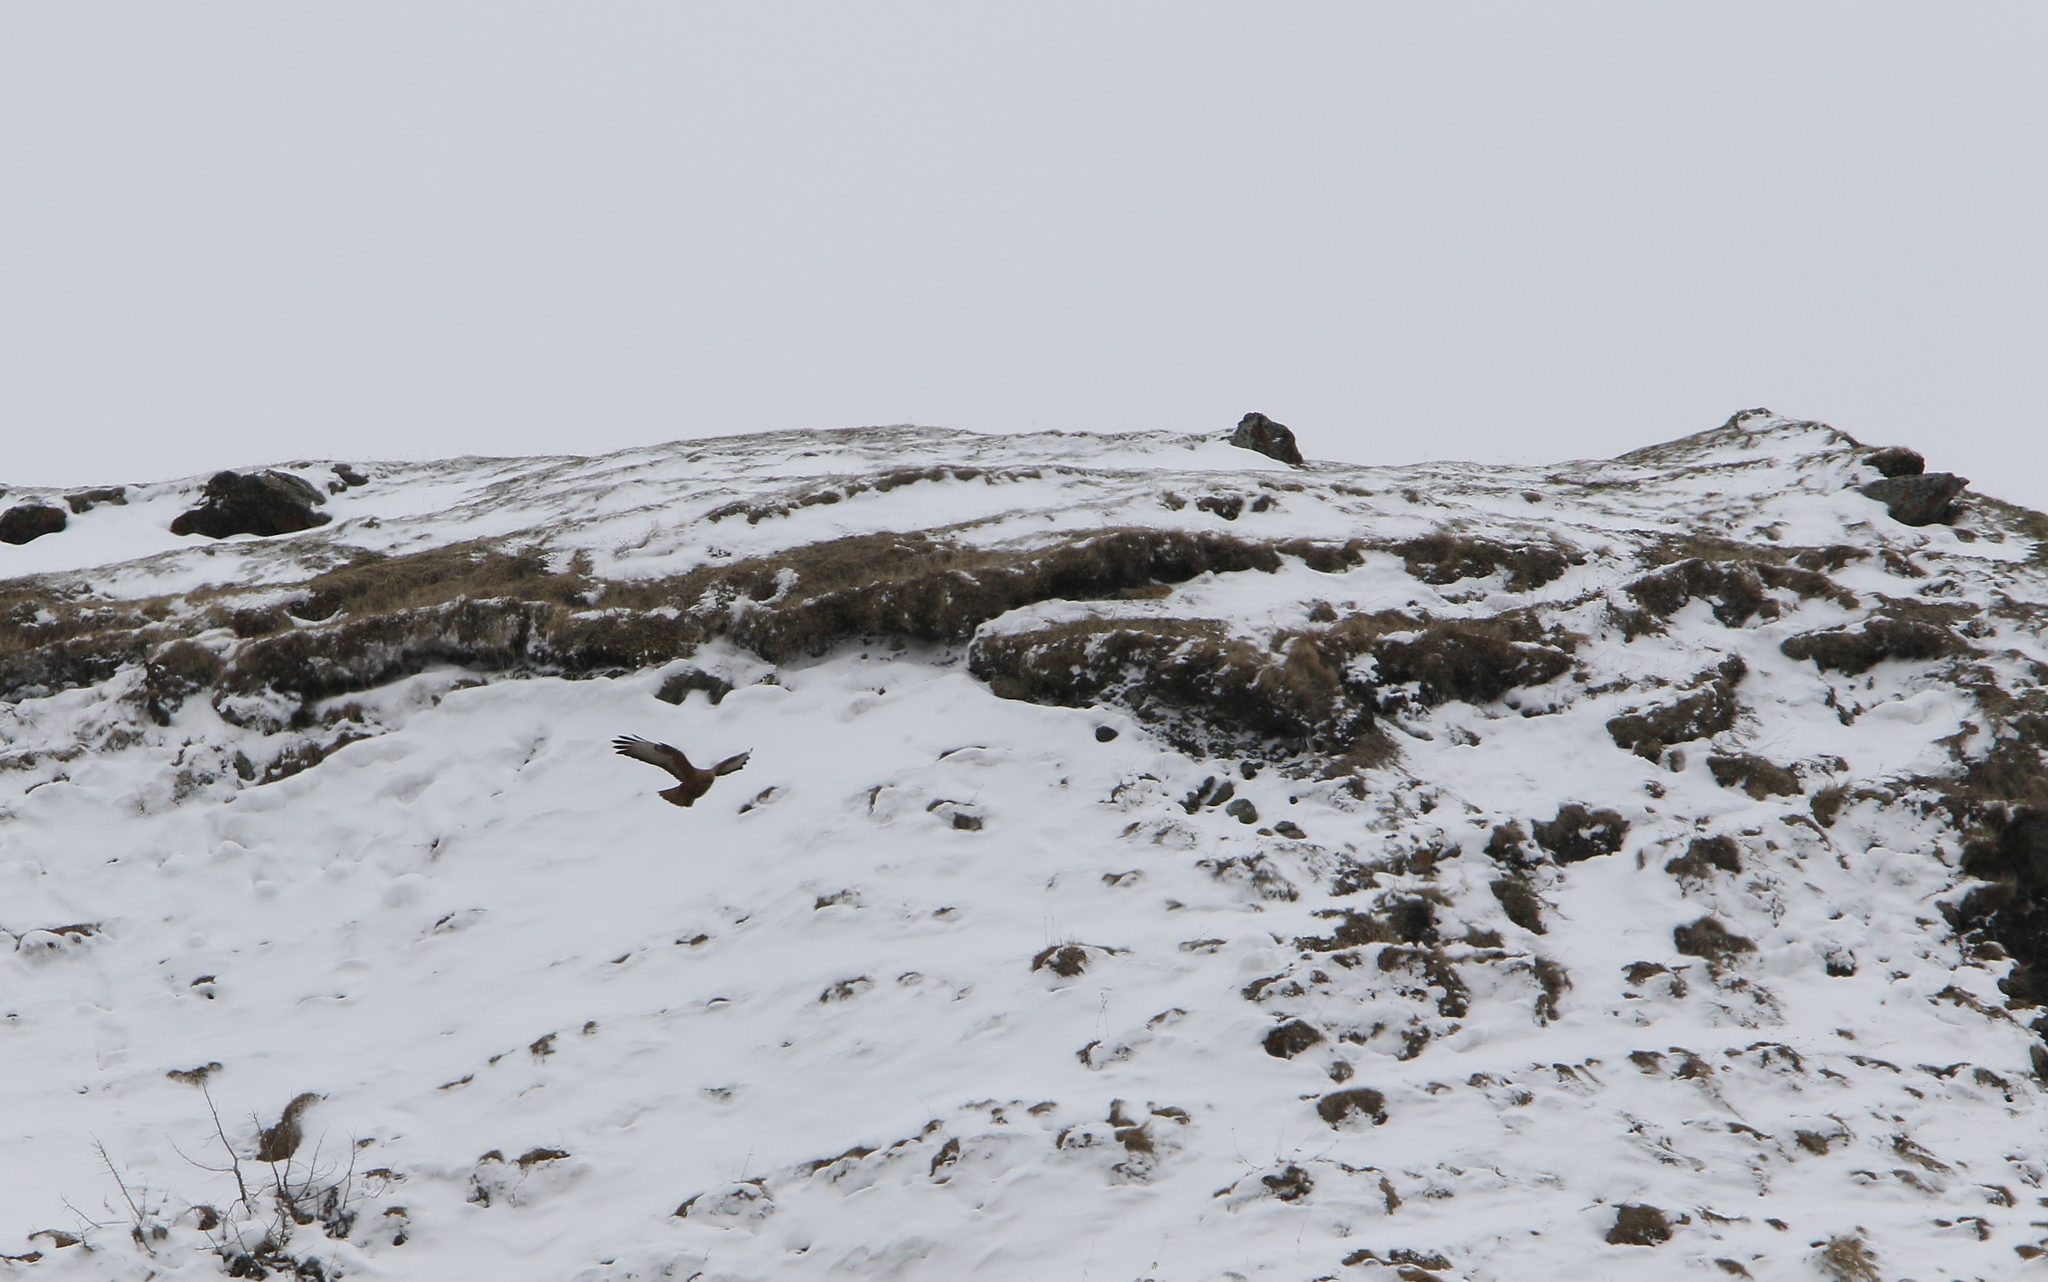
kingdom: Animalia
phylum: Chordata
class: Aves
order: Accipitriformes
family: Accipitridae
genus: Buteo
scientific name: Buteo rufinus
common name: Long-legged buzzard
